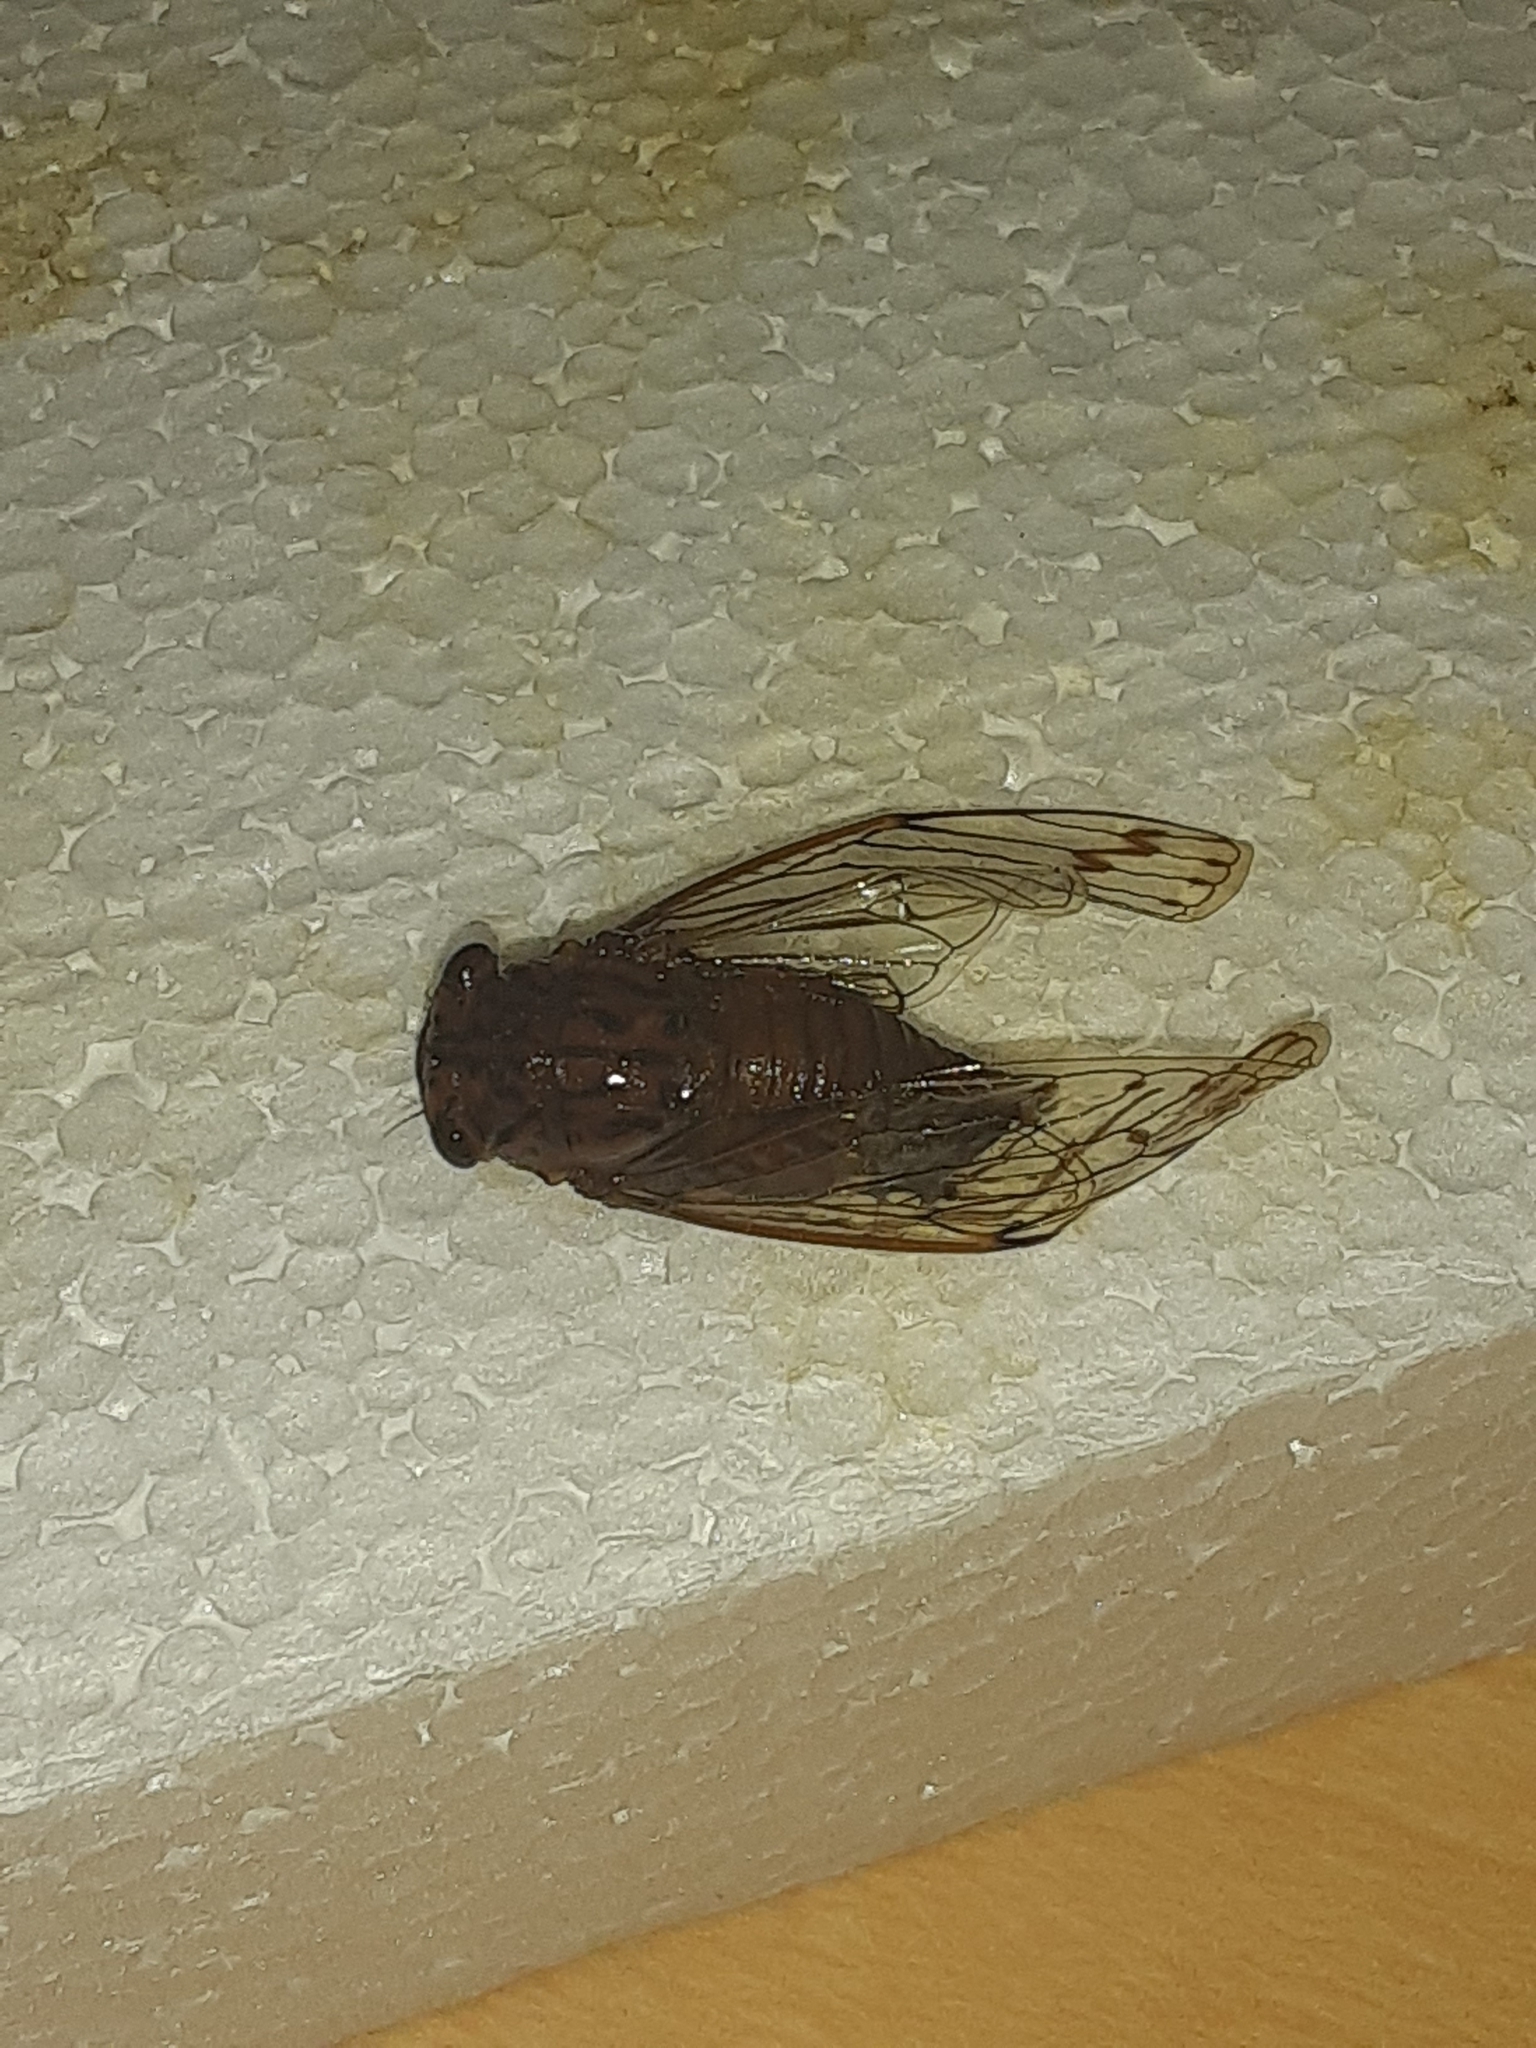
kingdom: Animalia
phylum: Arthropoda
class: Insecta
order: Hemiptera
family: Cicadidae
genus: Neocicada
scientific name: Neocicada hieroglyphica
